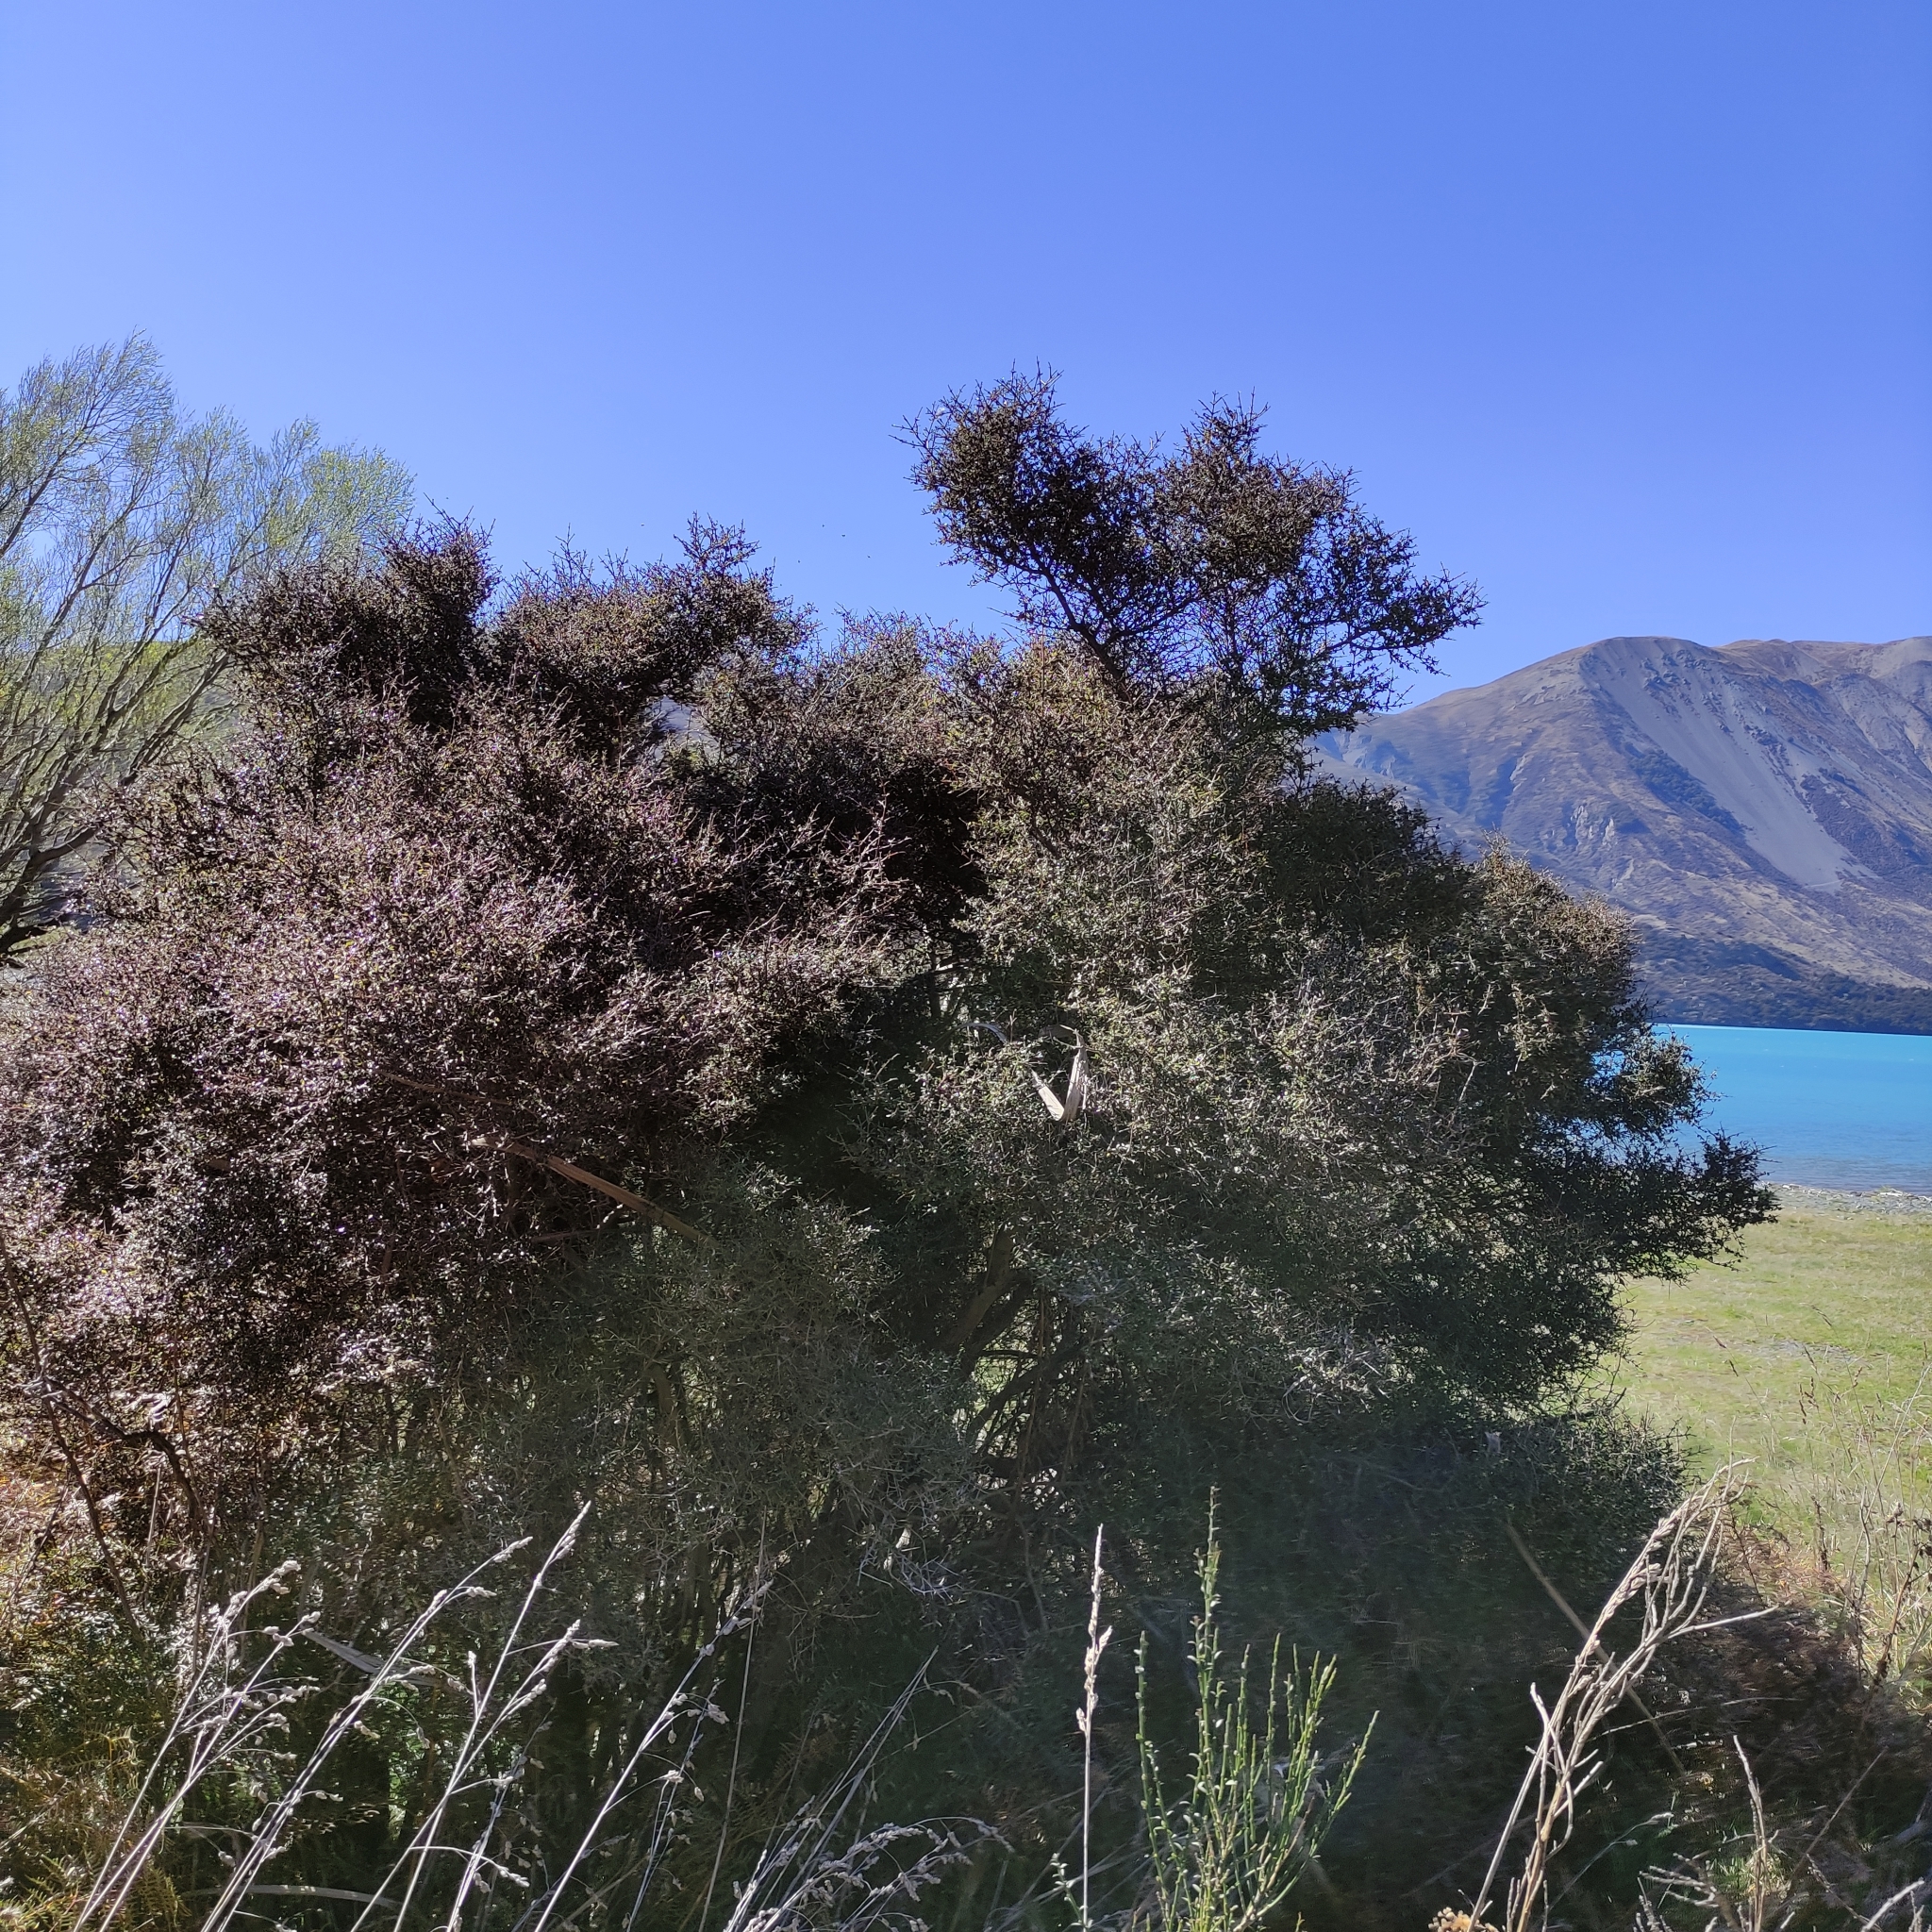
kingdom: Plantae
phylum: Tracheophyta
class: Magnoliopsida
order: Gentianales
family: Rubiaceae
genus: Coprosma
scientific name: Coprosma propinqua
